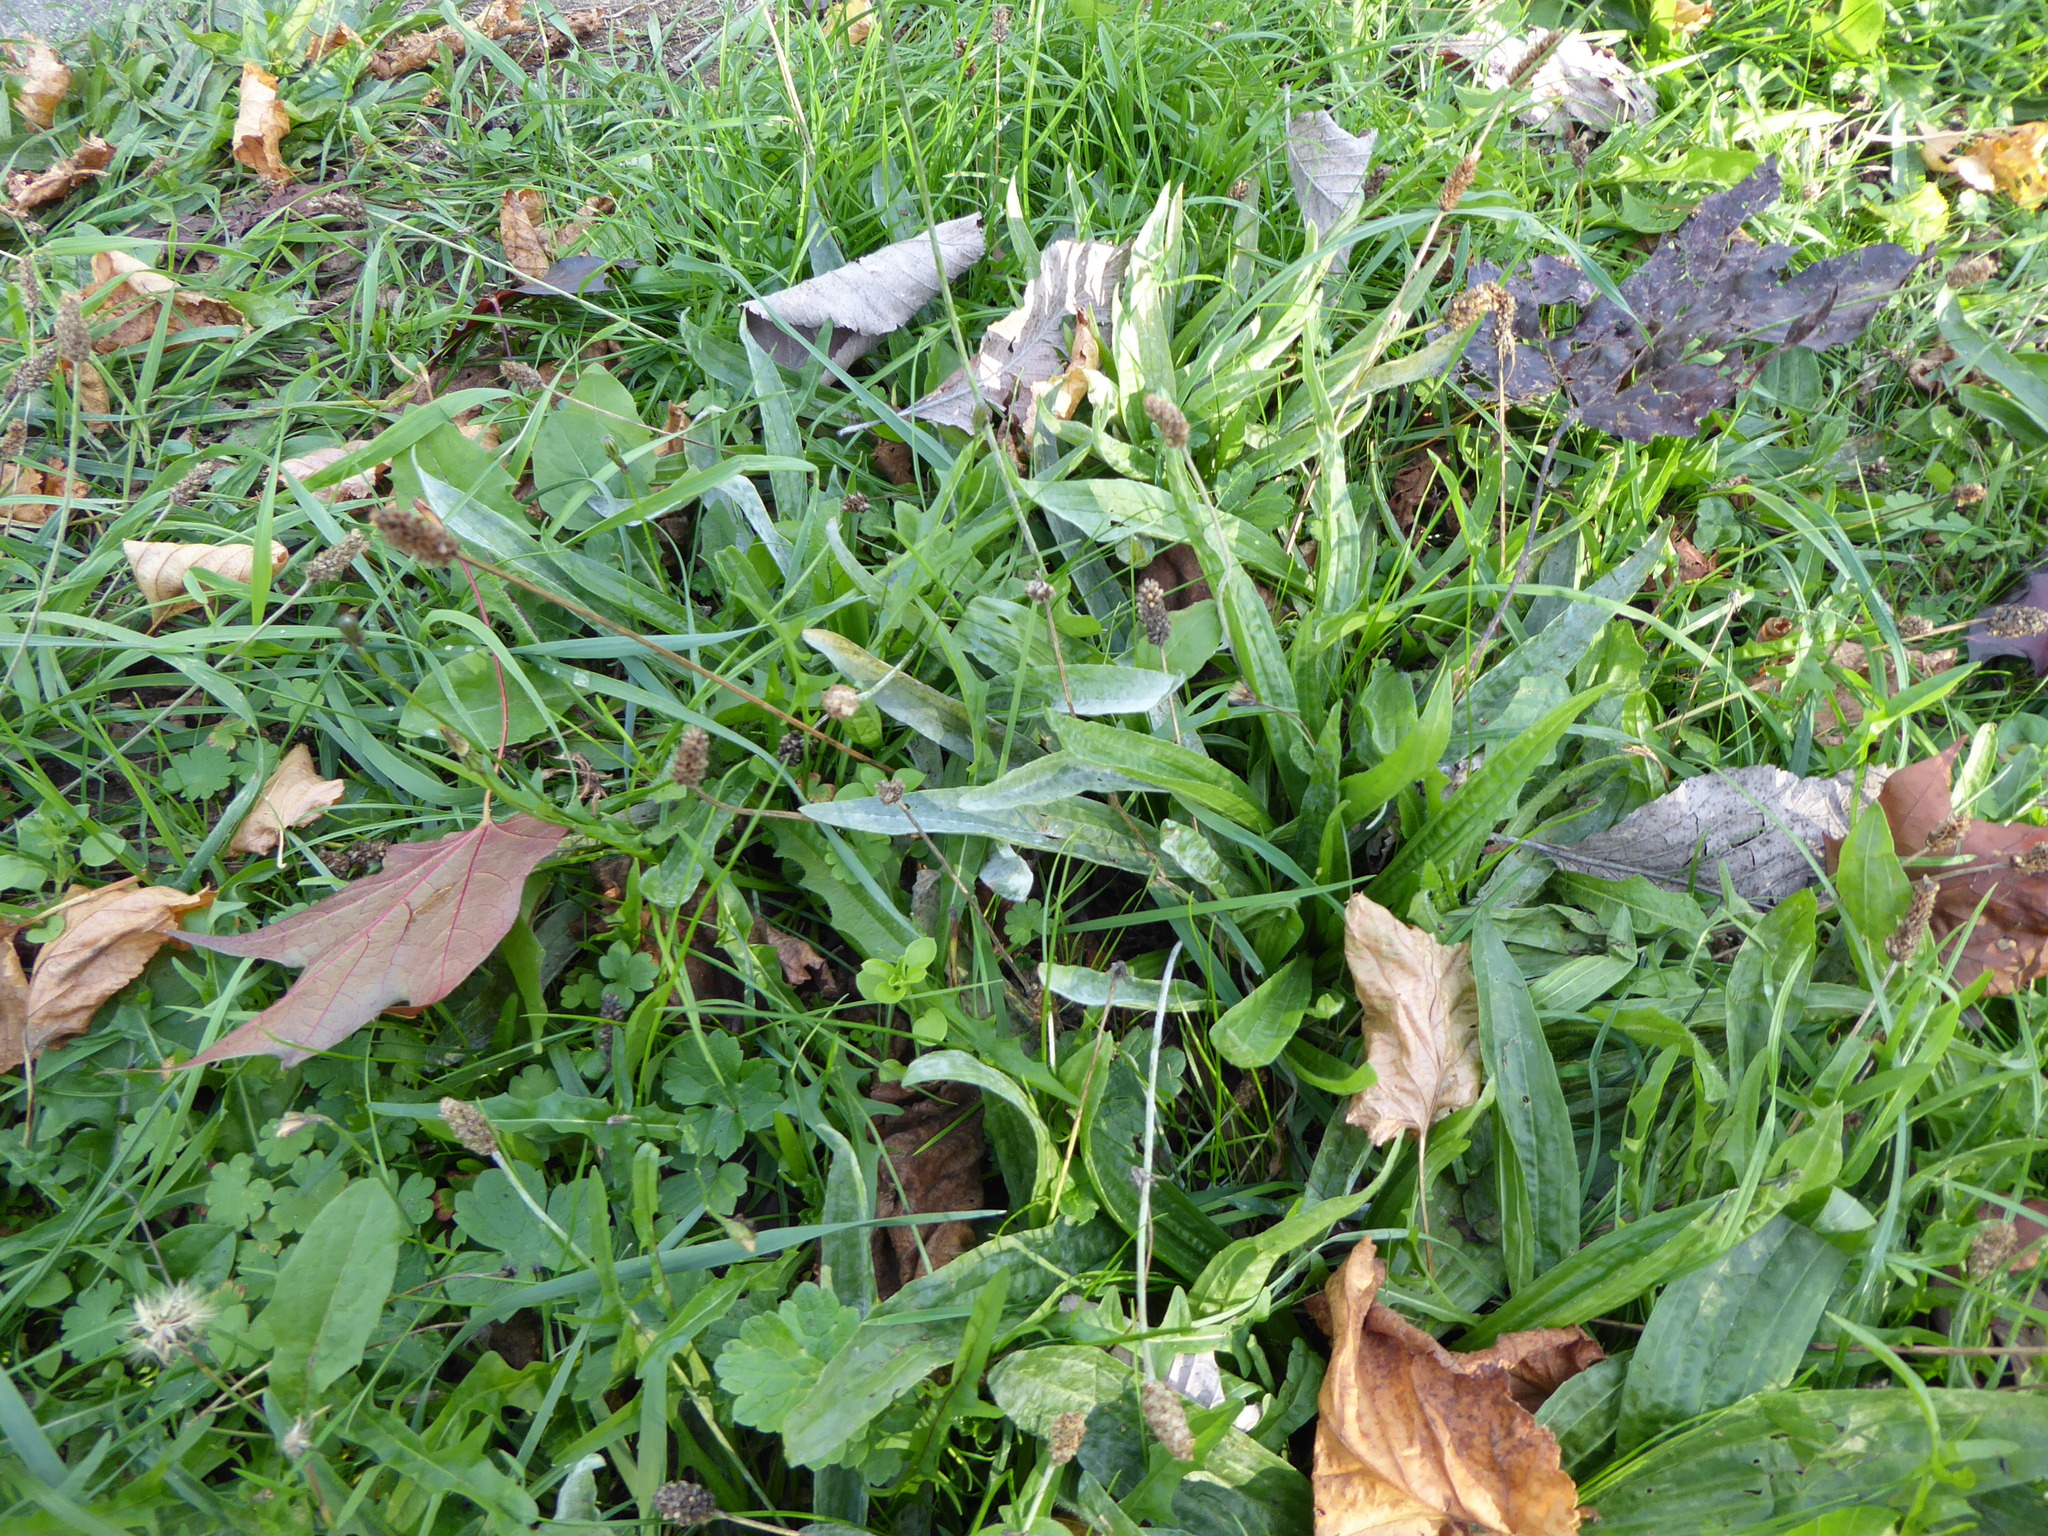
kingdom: Plantae
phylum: Tracheophyta
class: Magnoliopsida
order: Lamiales
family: Plantaginaceae
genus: Plantago
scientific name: Plantago lanceolata
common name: Ribwort plantain
